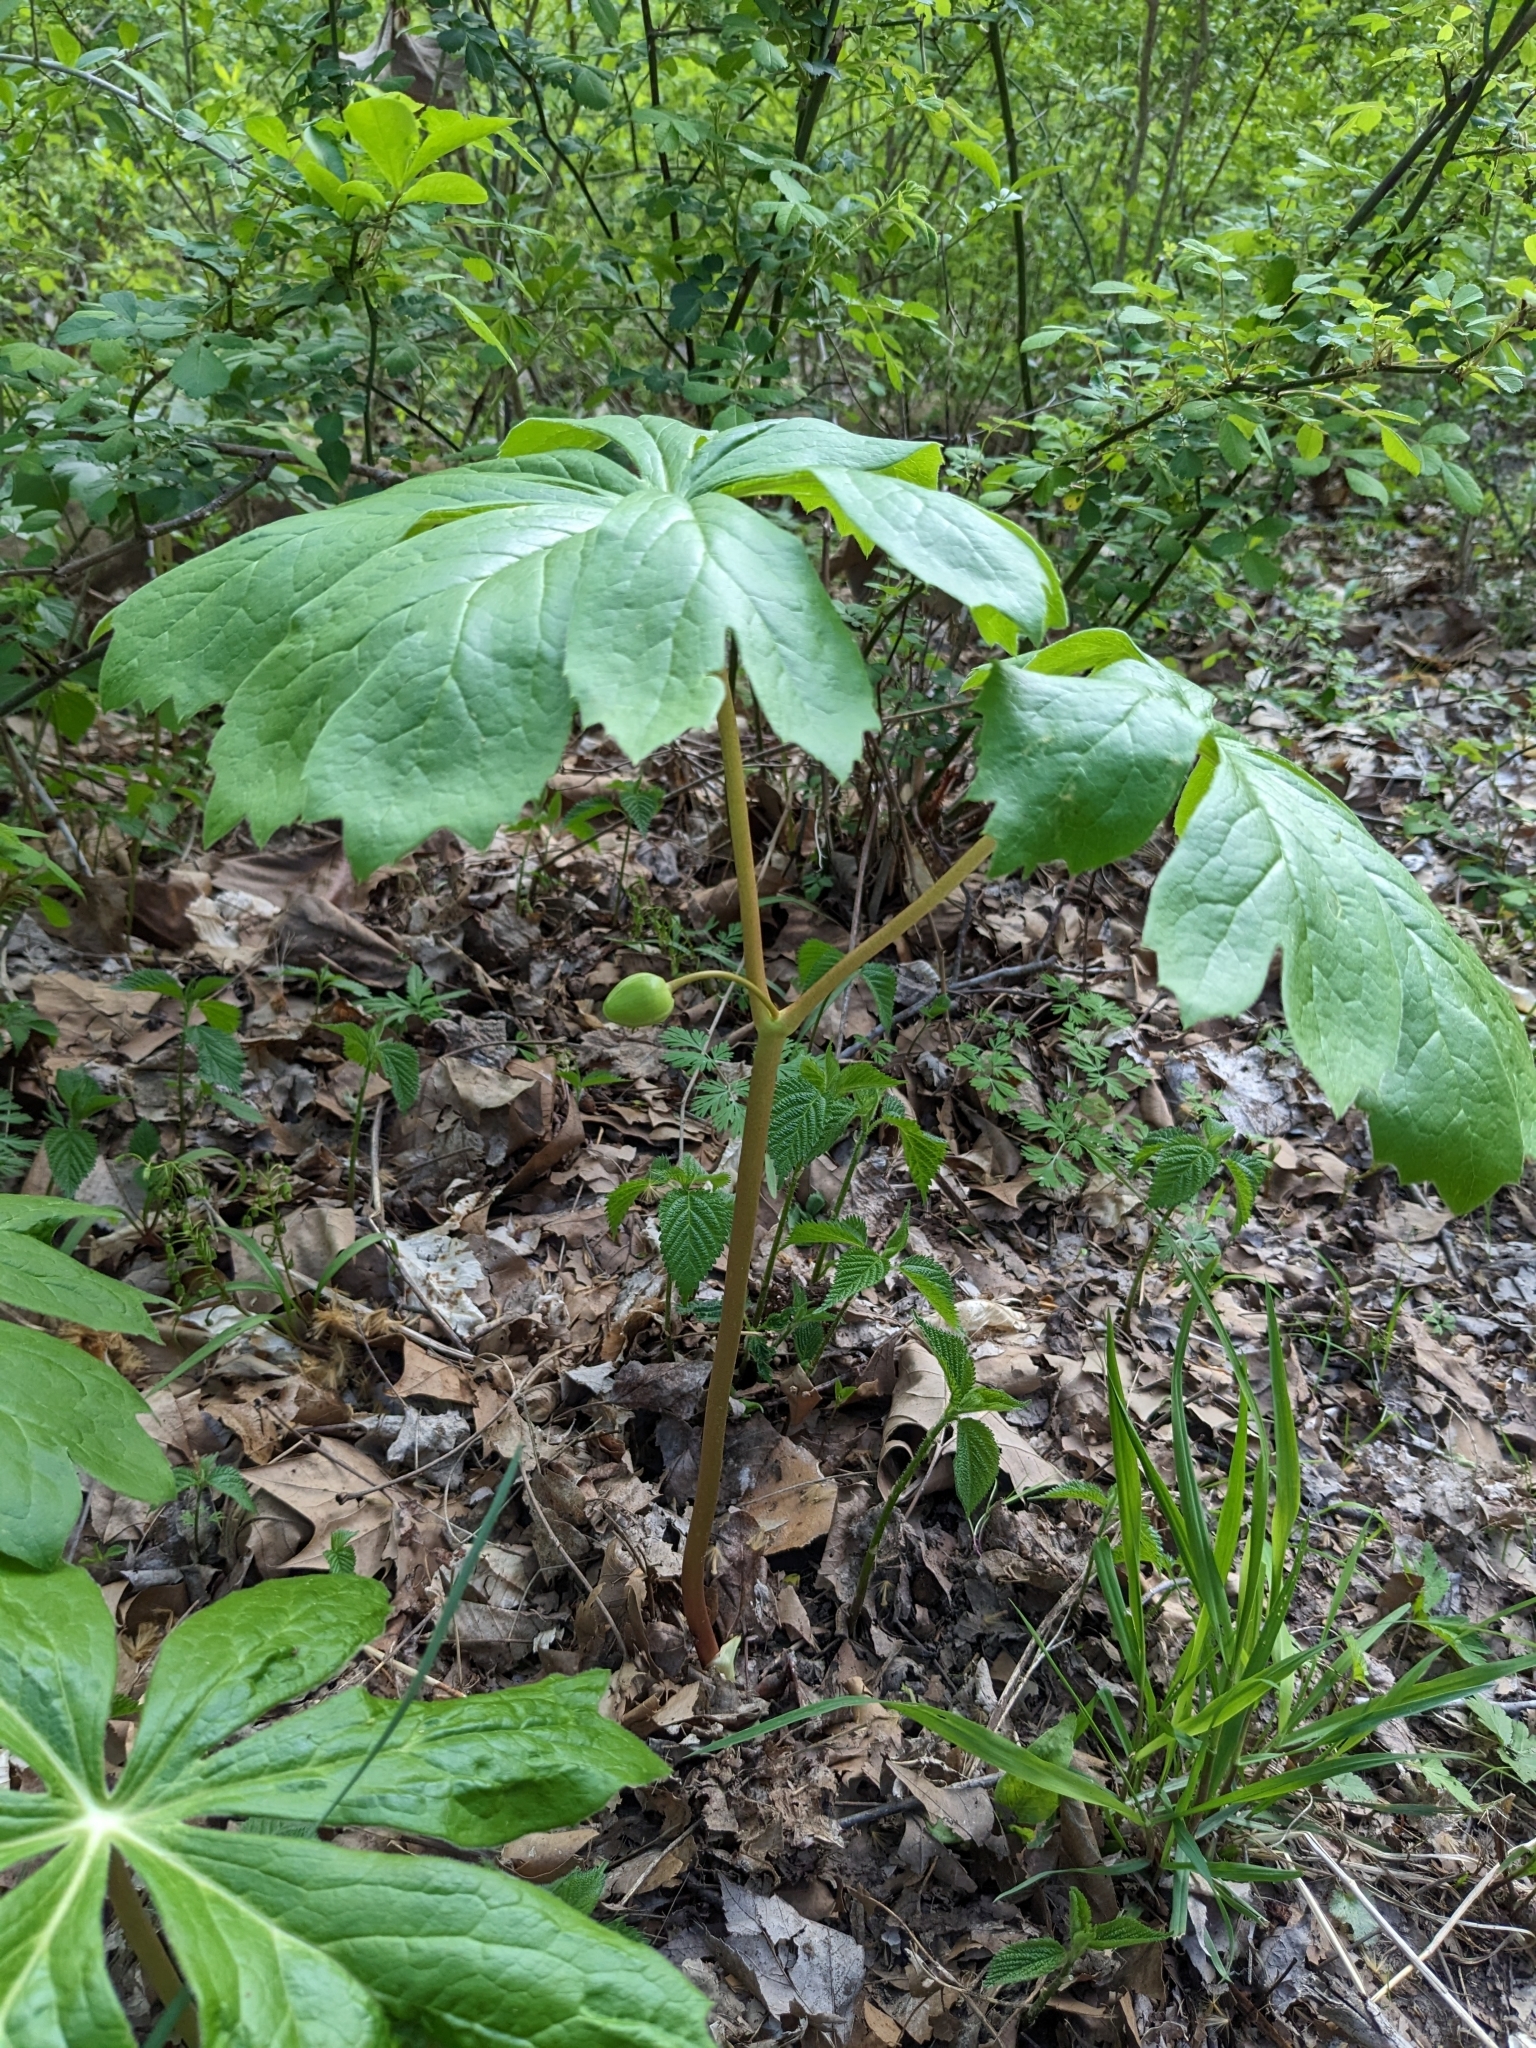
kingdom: Plantae
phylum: Tracheophyta
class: Magnoliopsida
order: Ranunculales
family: Berberidaceae
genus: Podophyllum
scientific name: Podophyllum peltatum
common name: Wild mandrake
